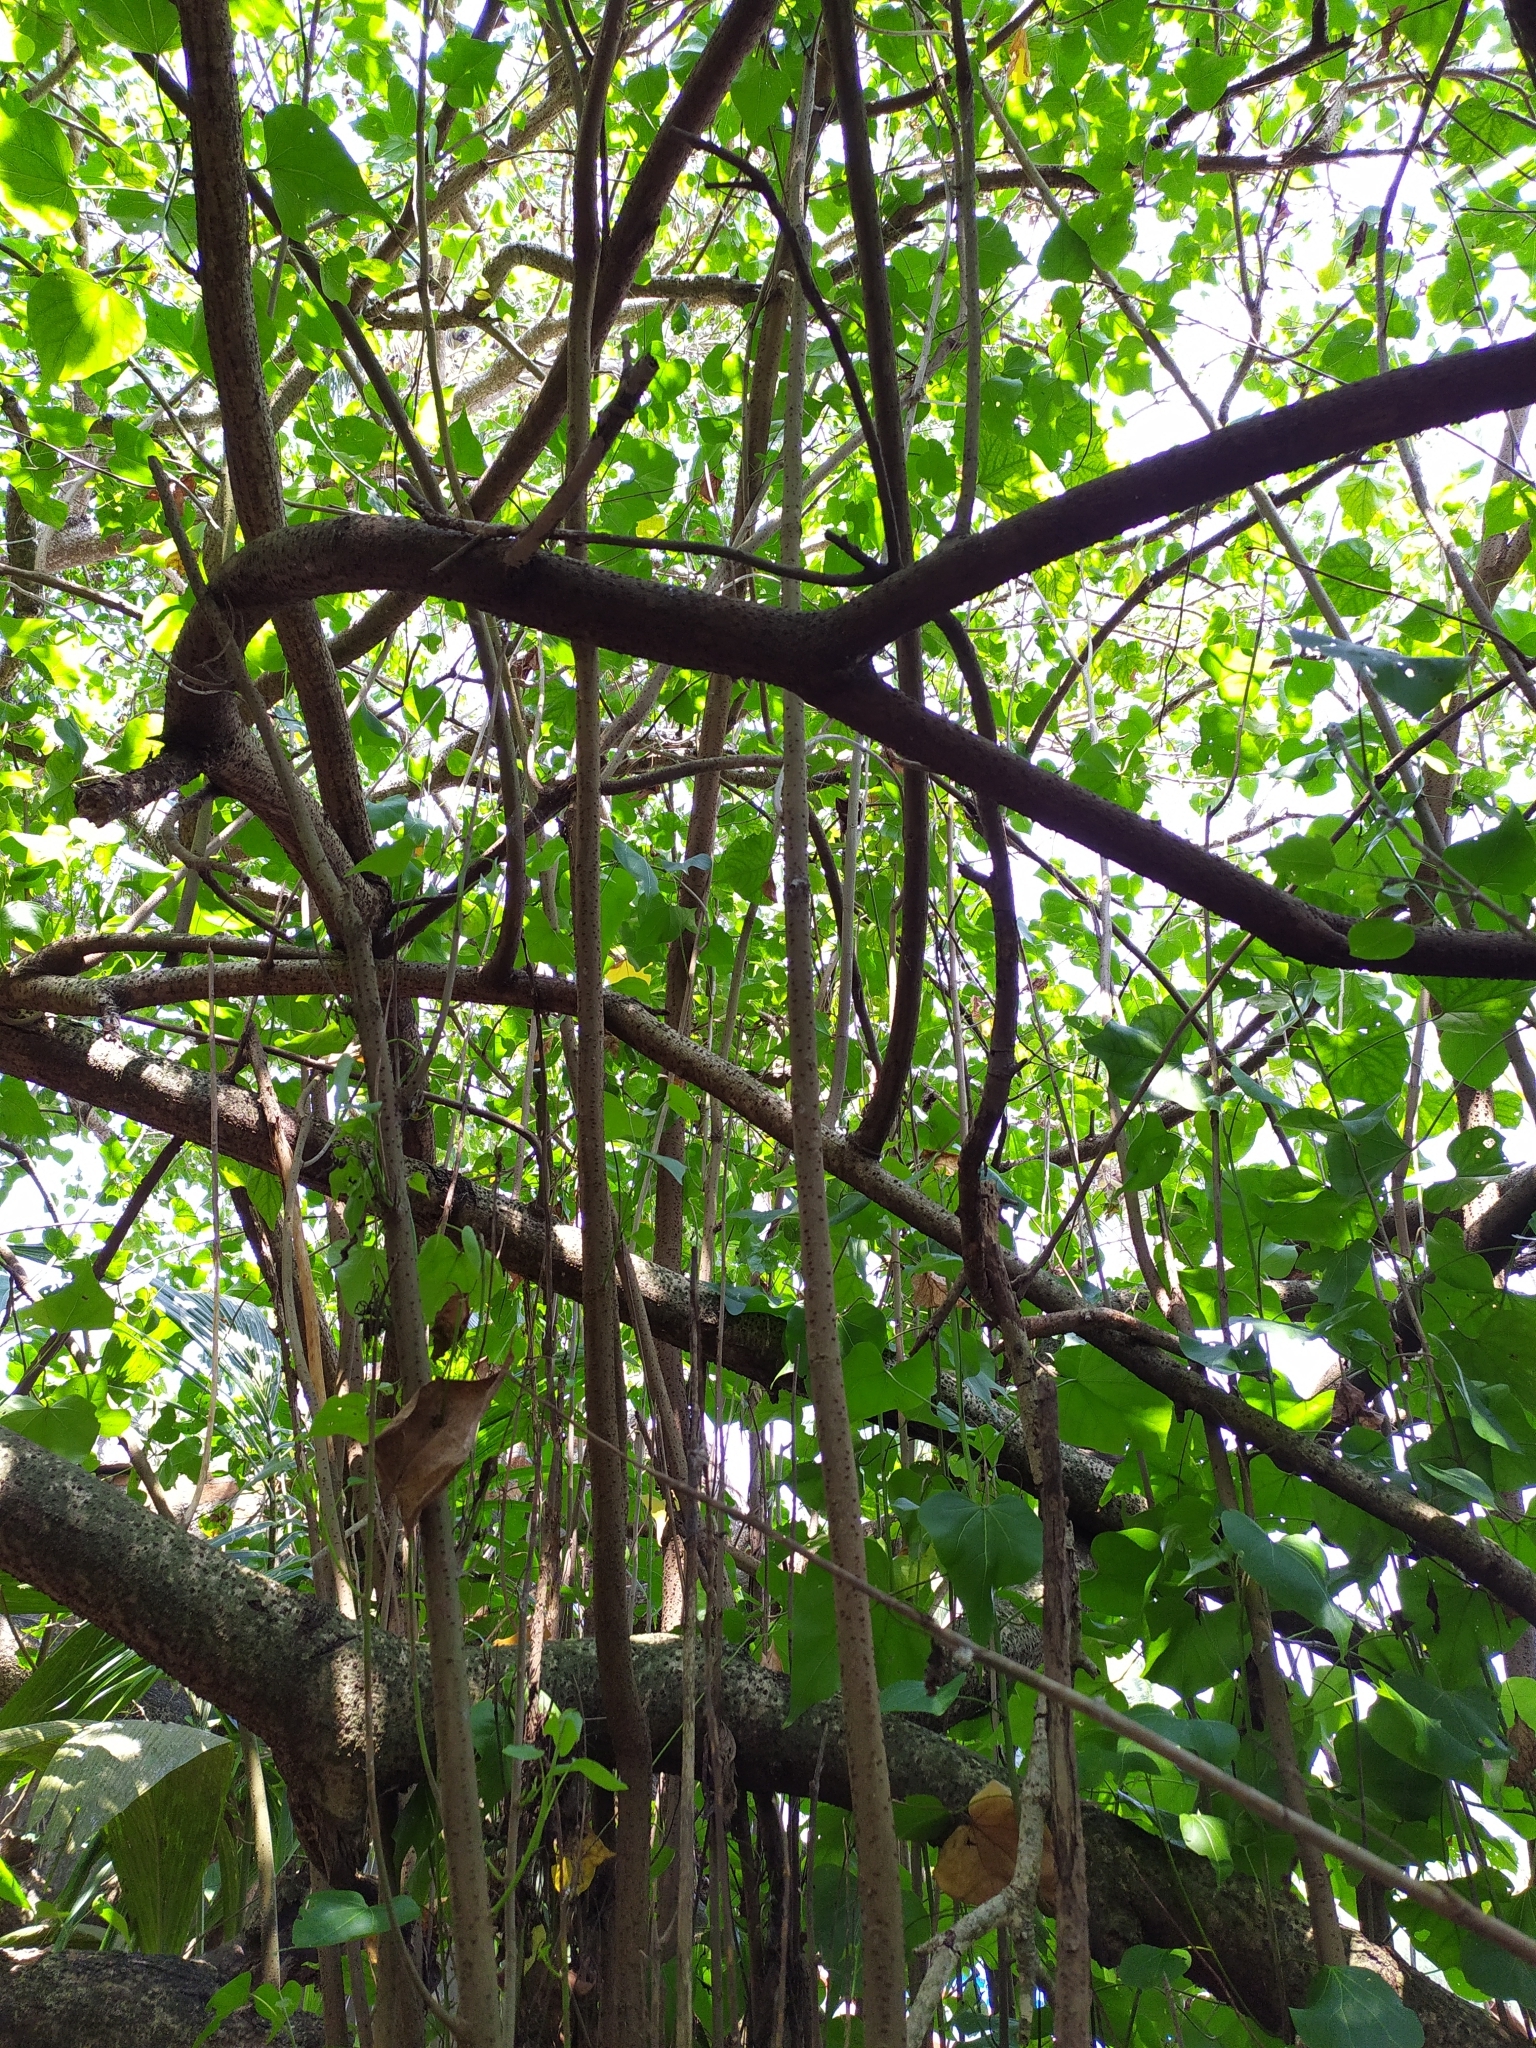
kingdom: Plantae
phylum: Tracheophyta
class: Magnoliopsida
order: Malvales
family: Malvaceae
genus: Thespesia
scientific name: Thespesia populnea
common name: Seaside mahoe
